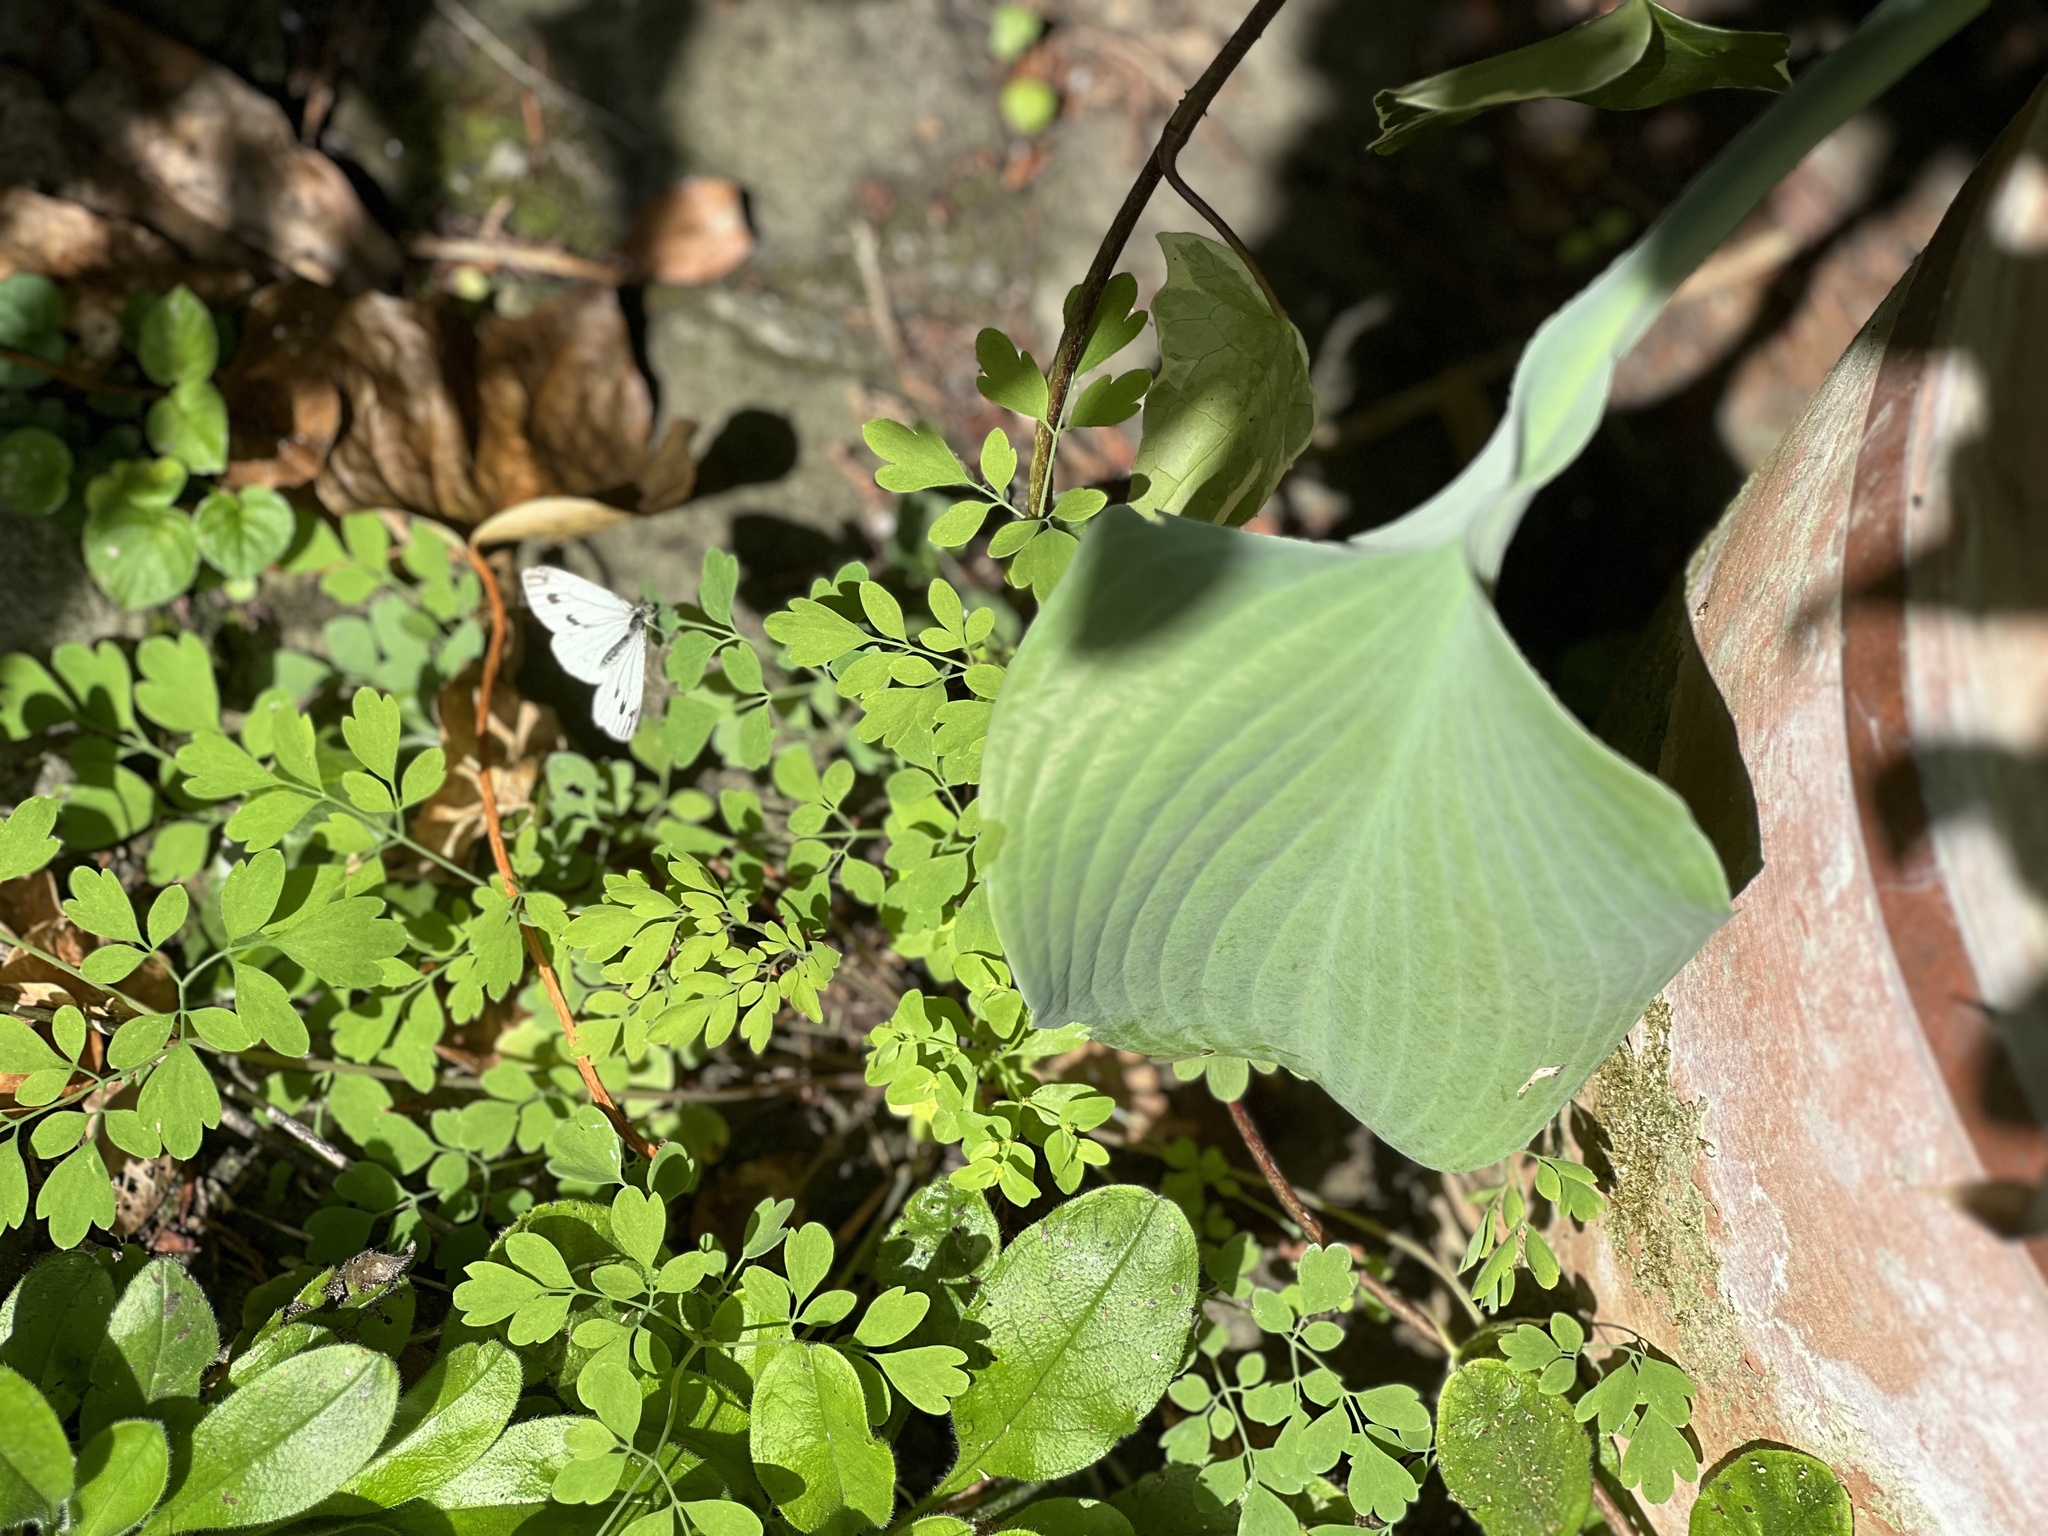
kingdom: Animalia
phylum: Arthropoda
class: Insecta
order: Lepidoptera
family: Pieridae
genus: Pieris
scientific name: Pieris napi
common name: Green-veined white
